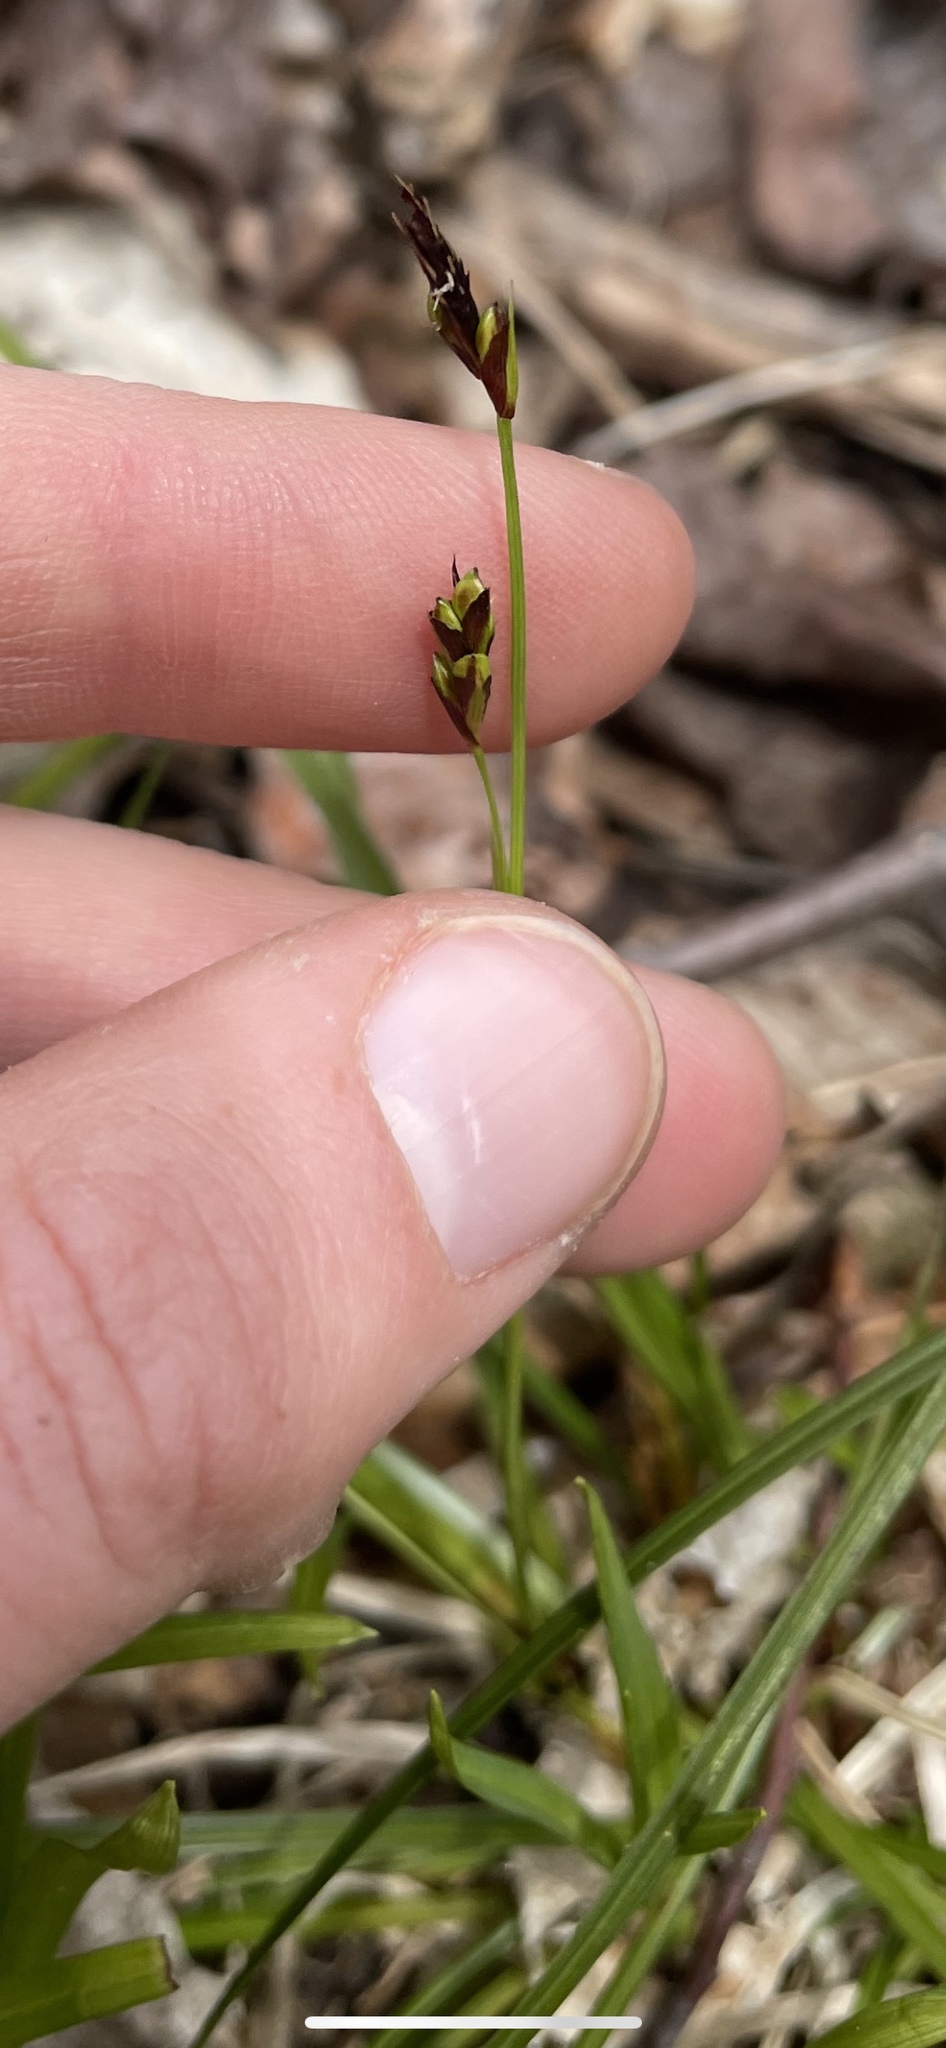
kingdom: Plantae
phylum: Tracheophyta
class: Liliopsida
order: Poales
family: Cyperaceae
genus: Carex
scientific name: Carex pedunculata
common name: Pedunculate sedge
